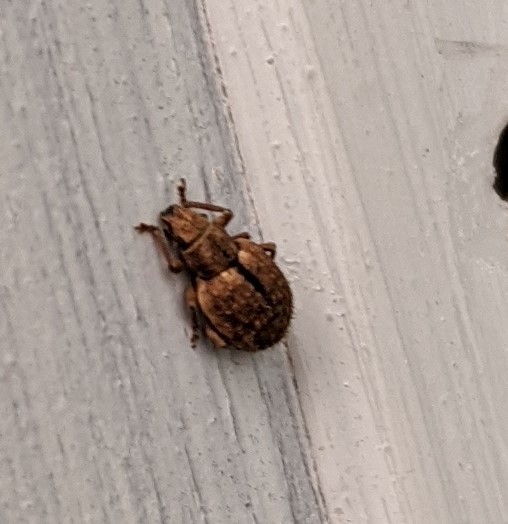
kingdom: Animalia
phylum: Arthropoda
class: Insecta
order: Coleoptera
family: Curculionidae
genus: Strophosoma
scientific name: Strophosoma melanogrammum
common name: Weevil
